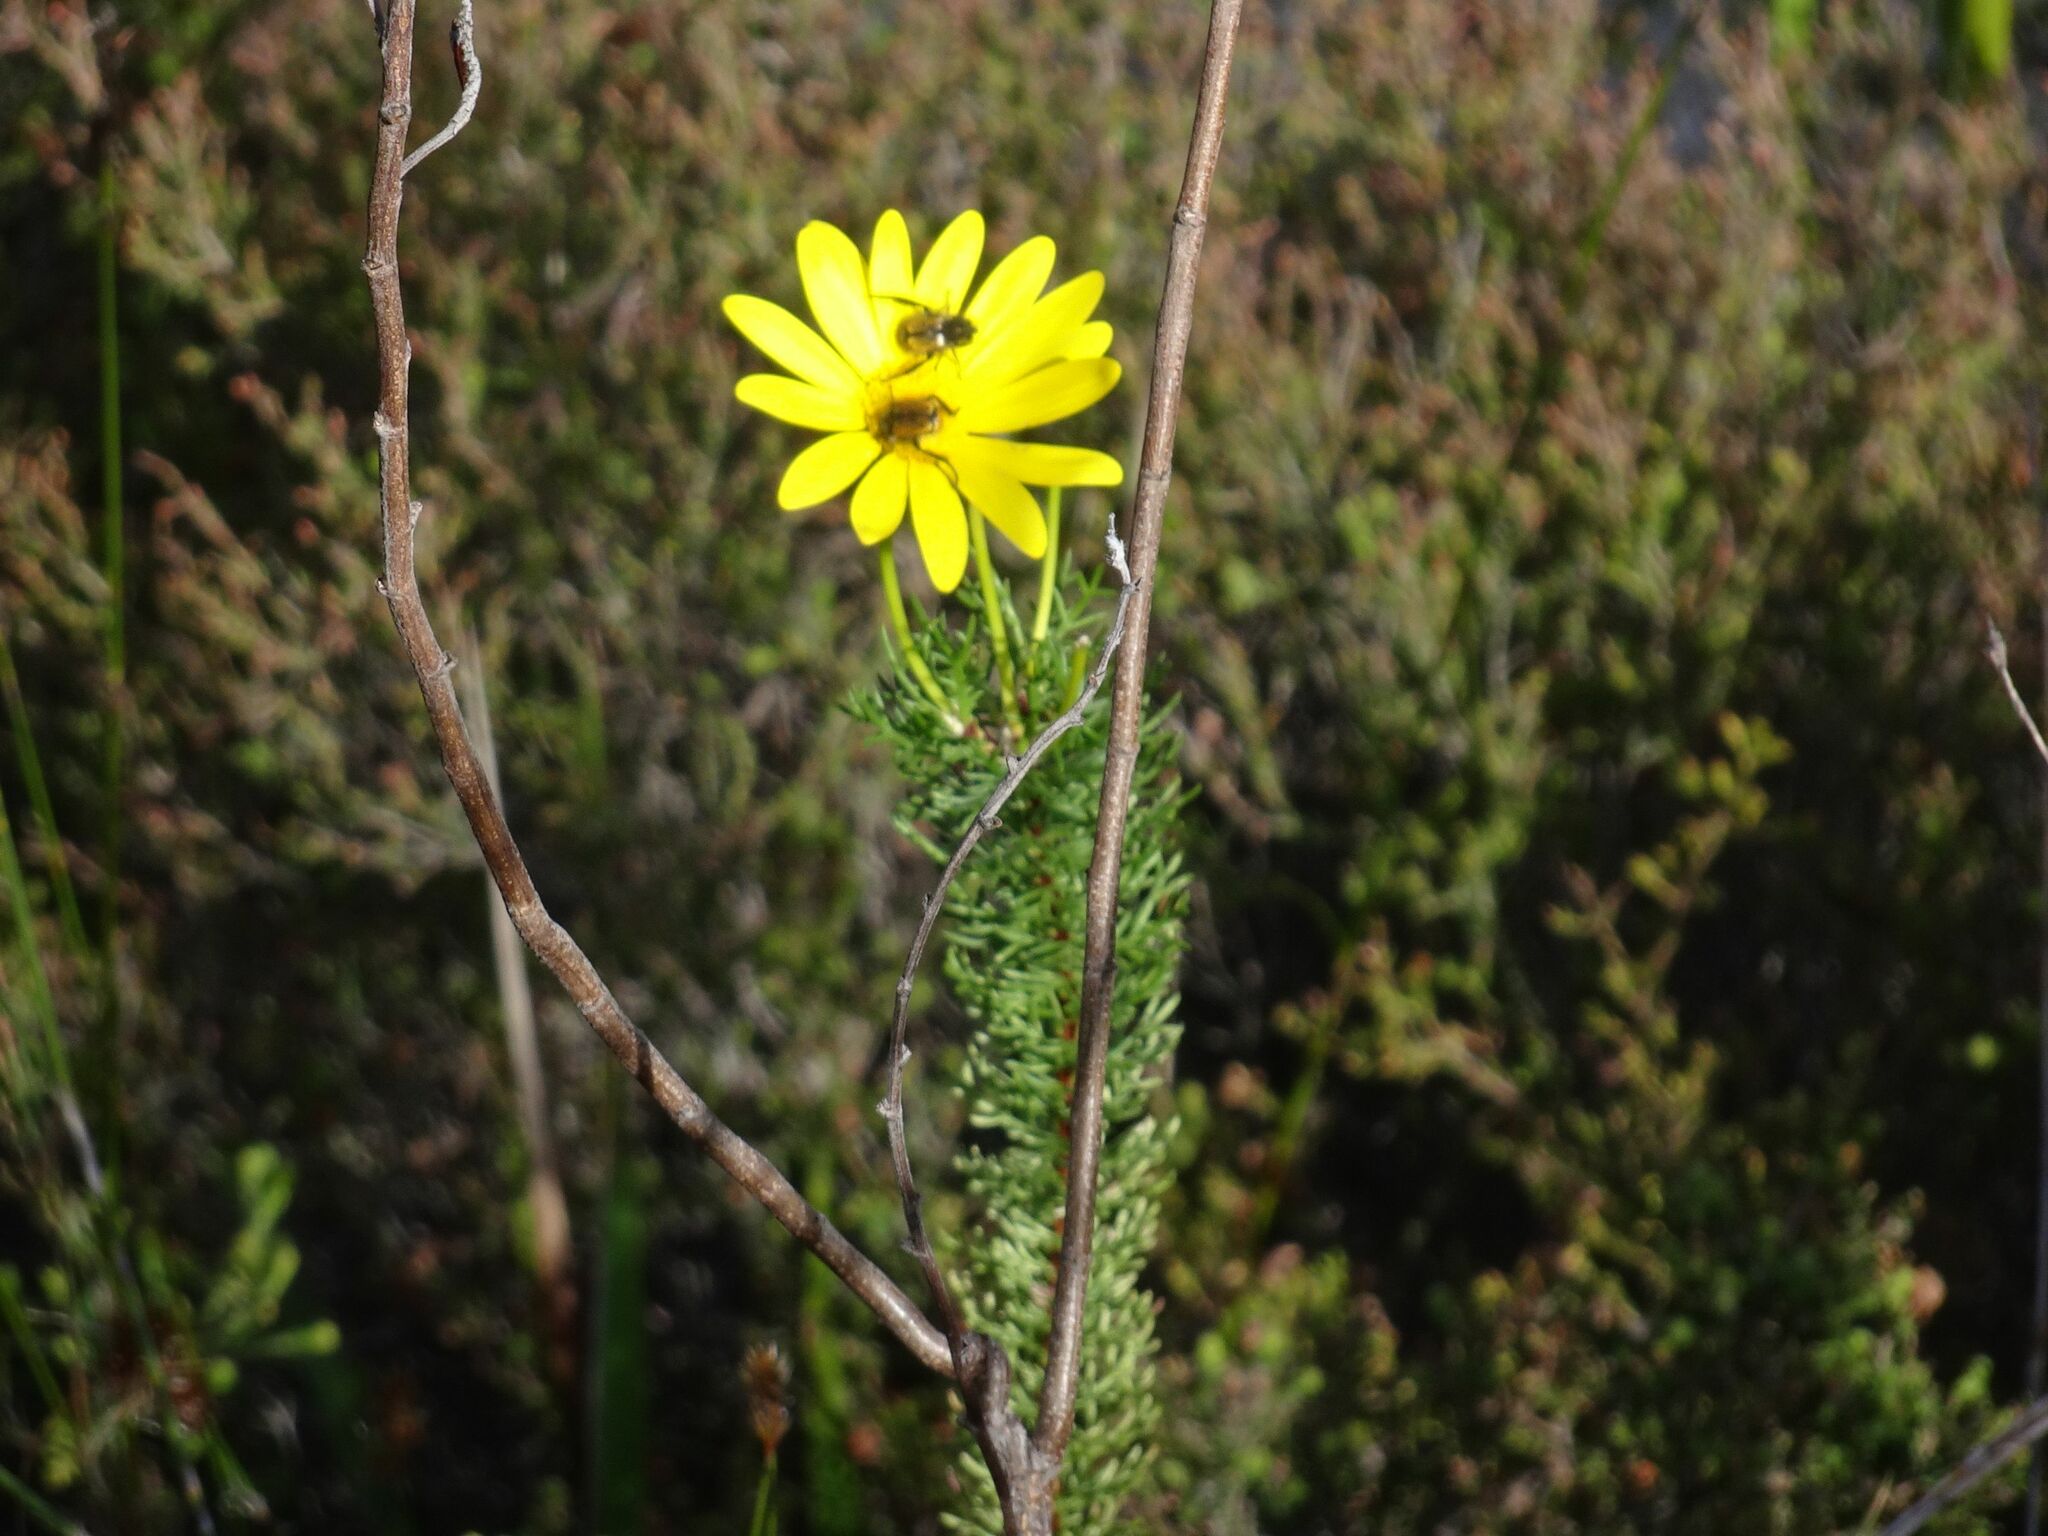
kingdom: Plantae
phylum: Tracheophyta
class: Magnoliopsida
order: Asterales
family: Asteraceae
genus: Euryops
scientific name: Euryops abrotanifolius
